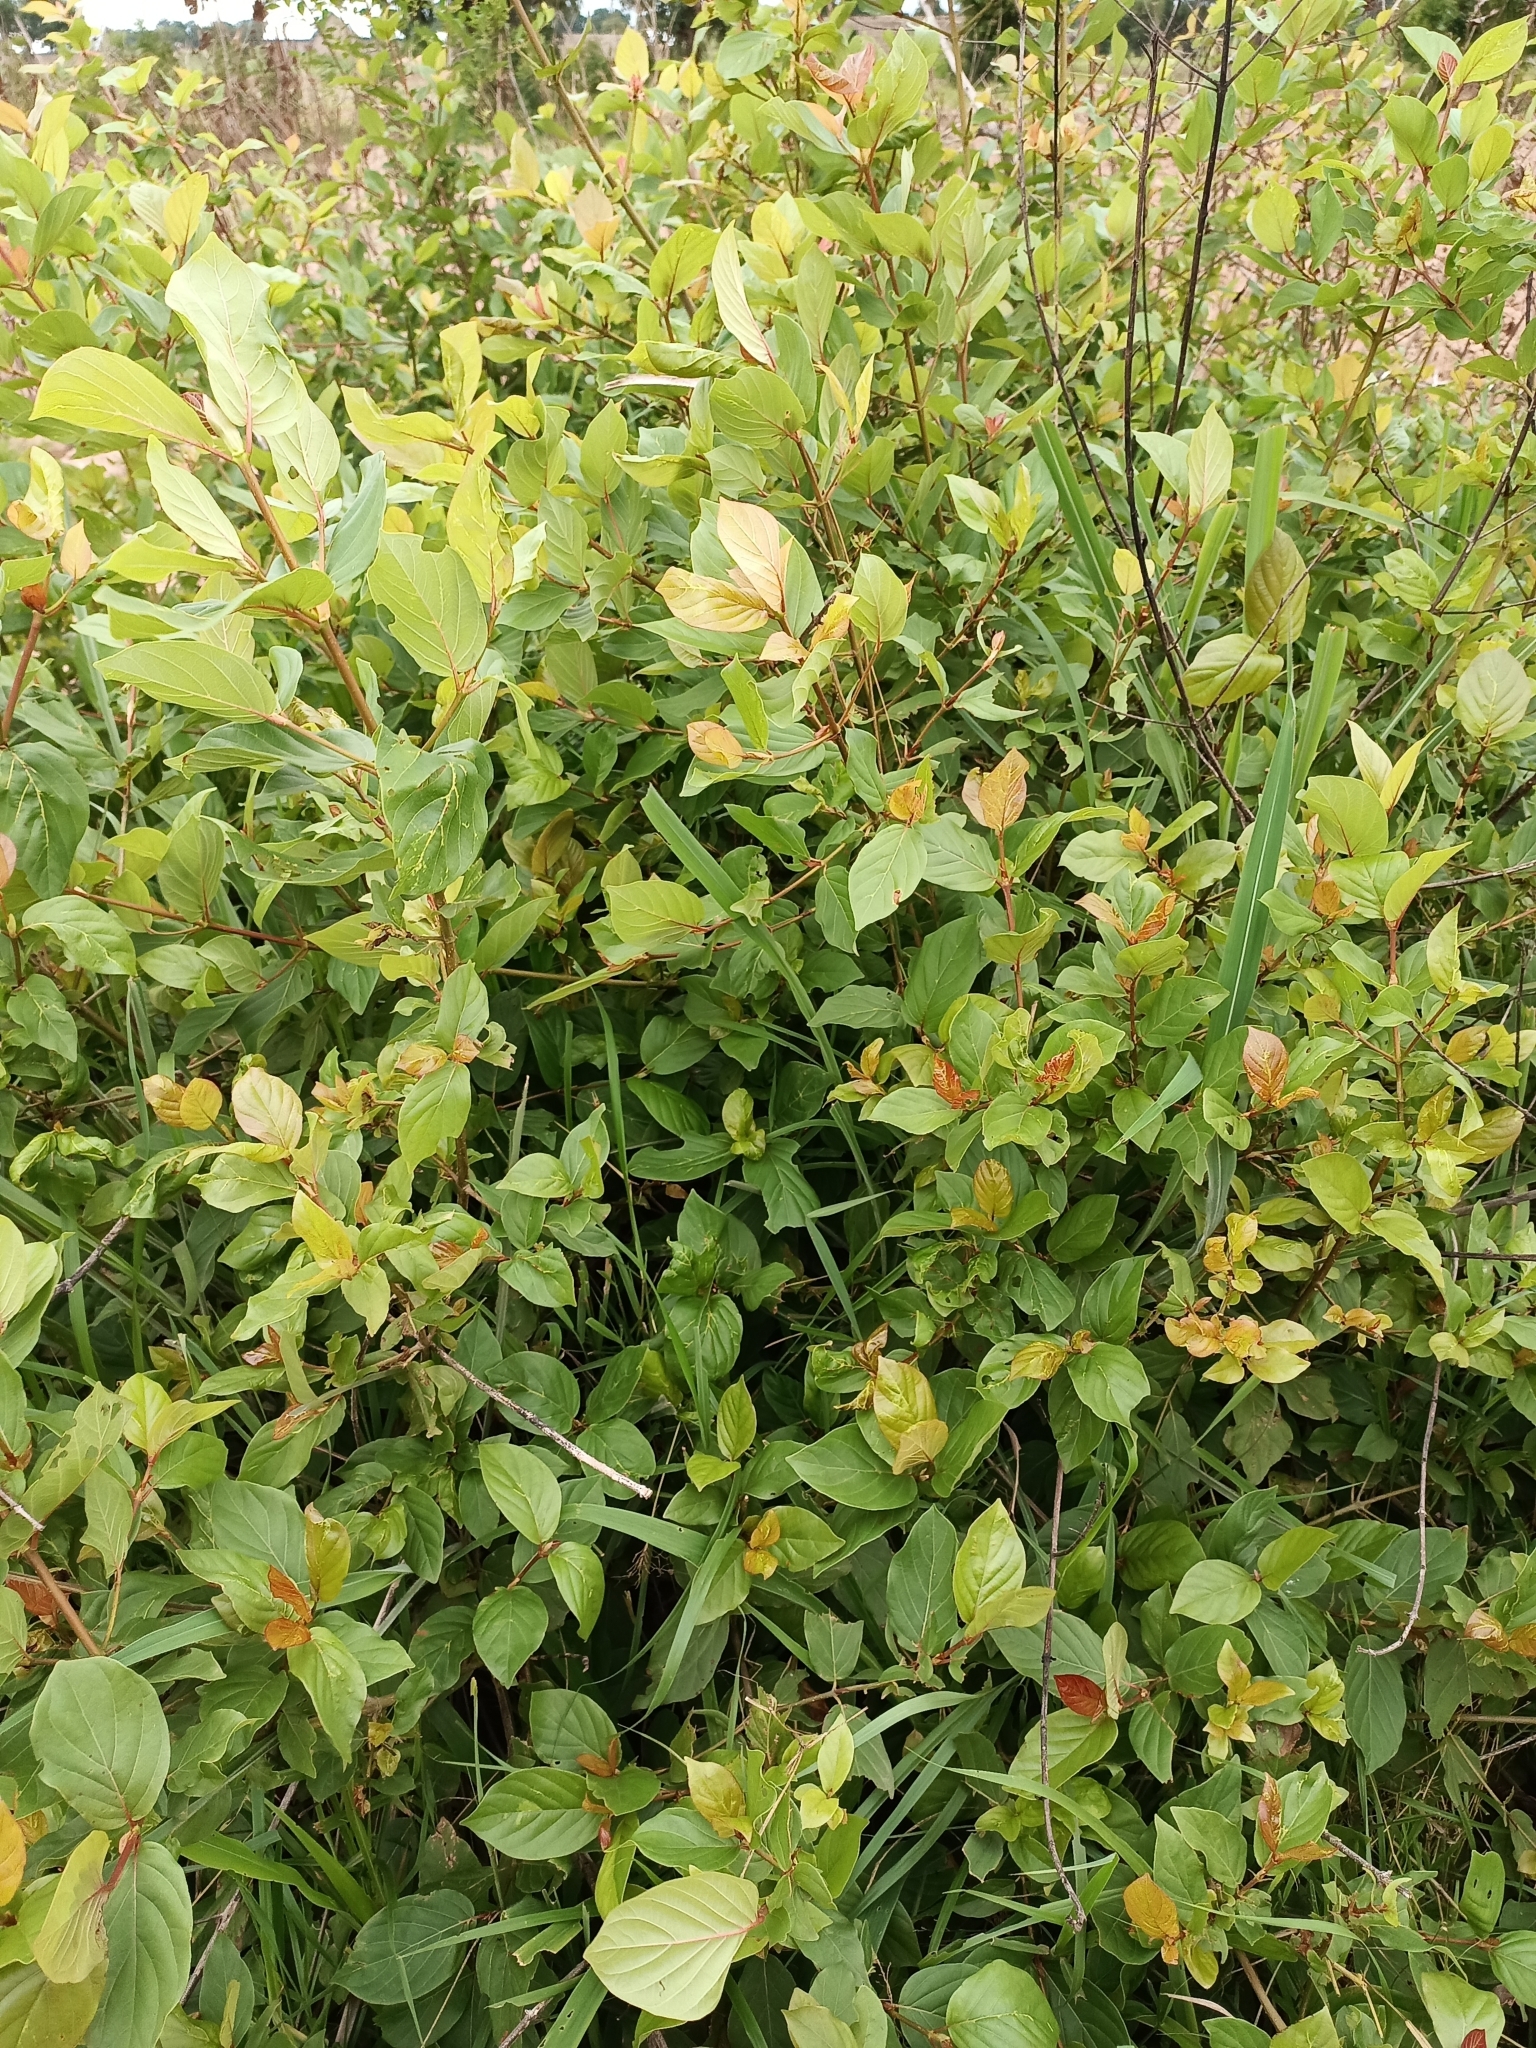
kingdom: Plantae
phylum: Tracheophyta
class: Magnoliopsida
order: Gentianales
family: Rubiaceae
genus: Crossopteryx
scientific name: Crossopteryx febrifuga
